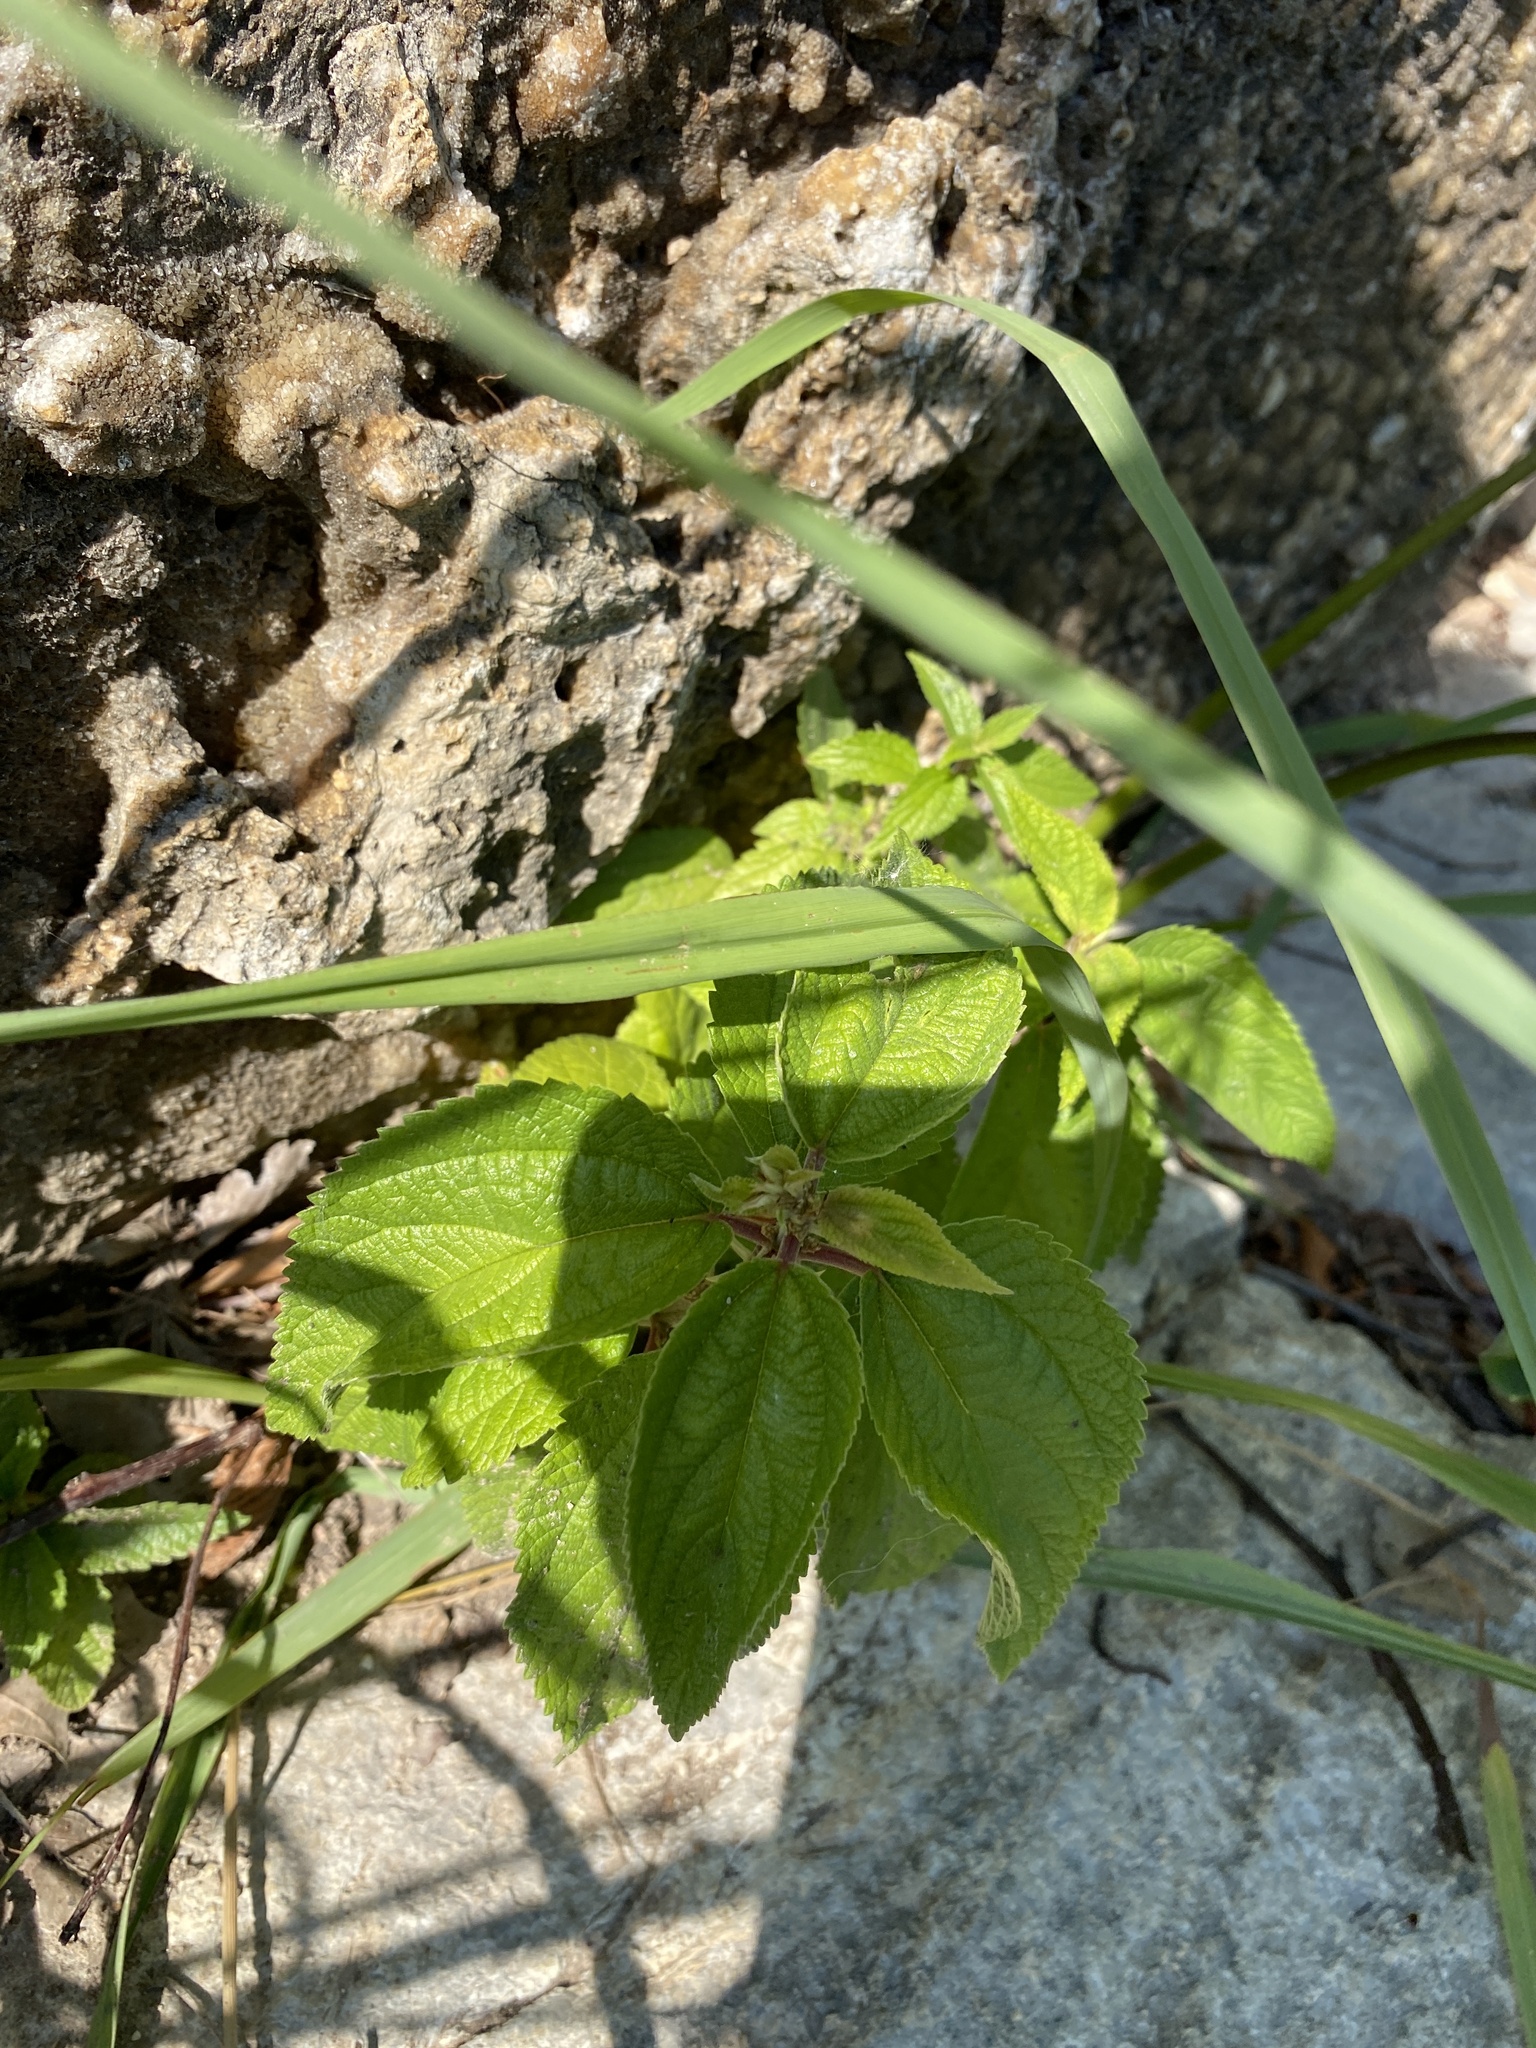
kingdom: Plantae
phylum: Tracheophyta
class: Magnoliopsida
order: Rosales
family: Urticaceae
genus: Boehmeria
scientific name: Boehmeria cylindrica
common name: Bog-hemp
